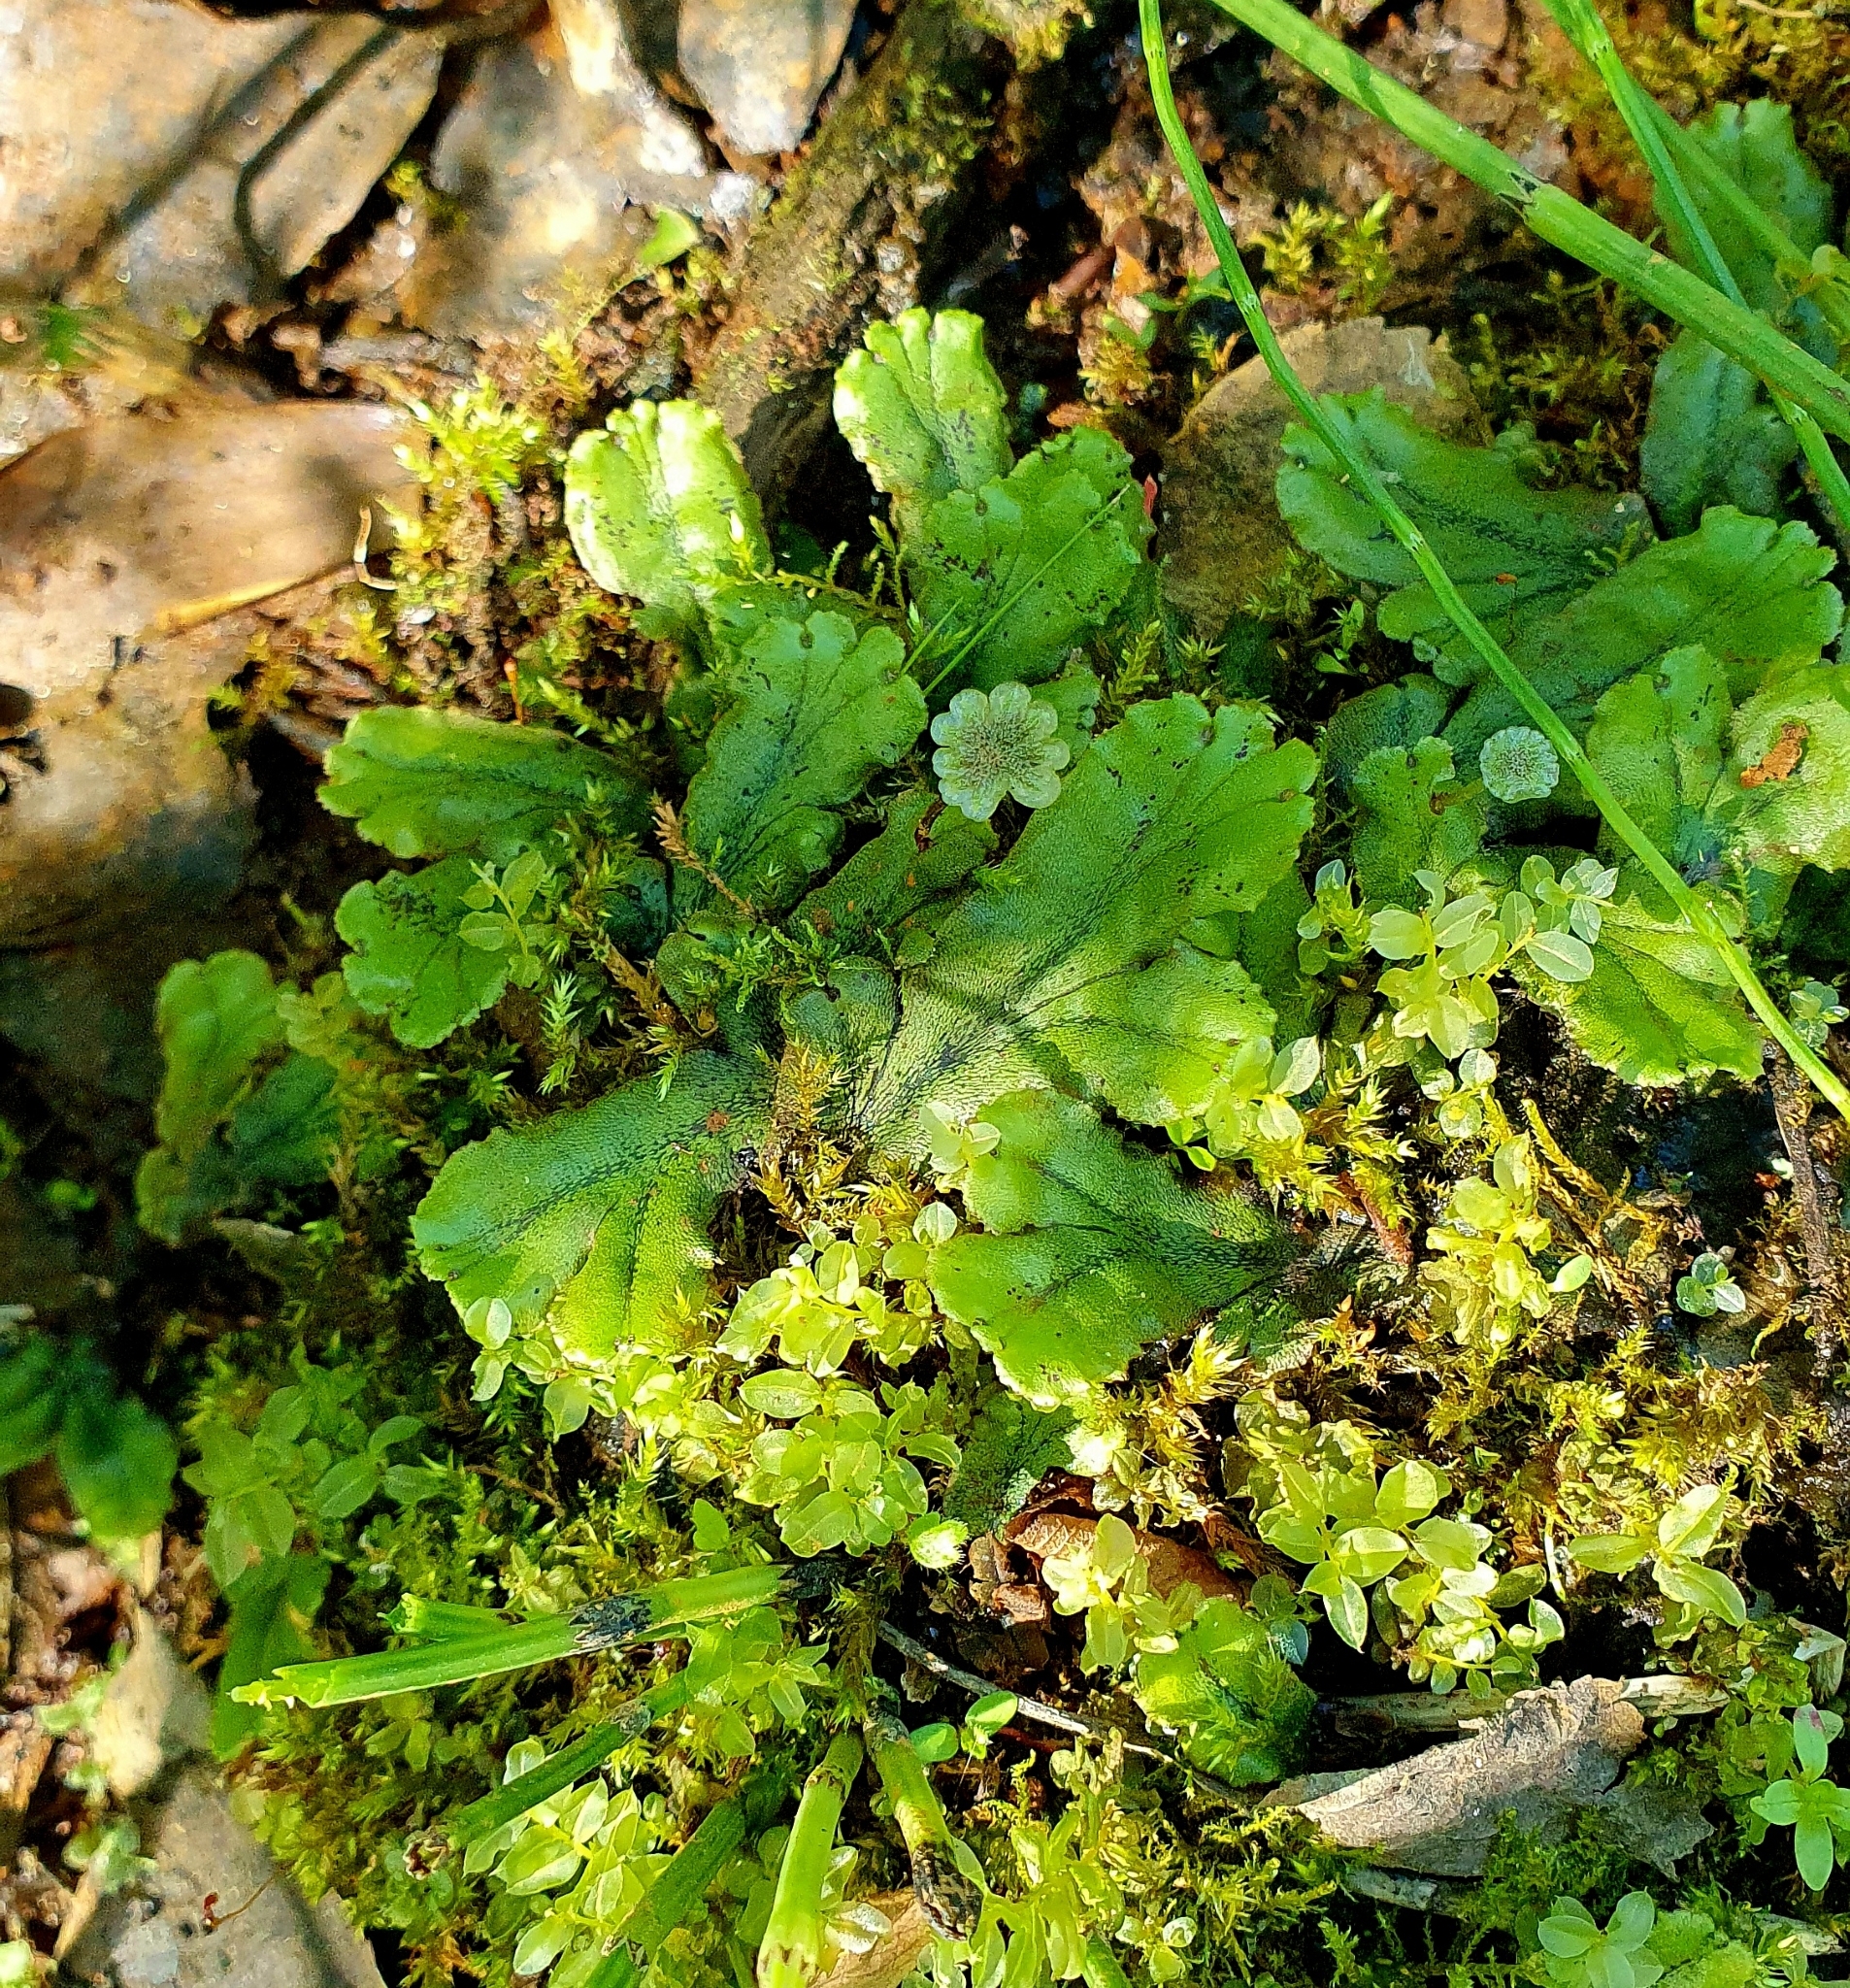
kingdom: Plantae
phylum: Marchantiophyta
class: Marchantiopsida
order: Marchantiales
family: Marchantiaceae
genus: Marchantia
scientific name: Marchantia polymorpha
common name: Common liverwort
